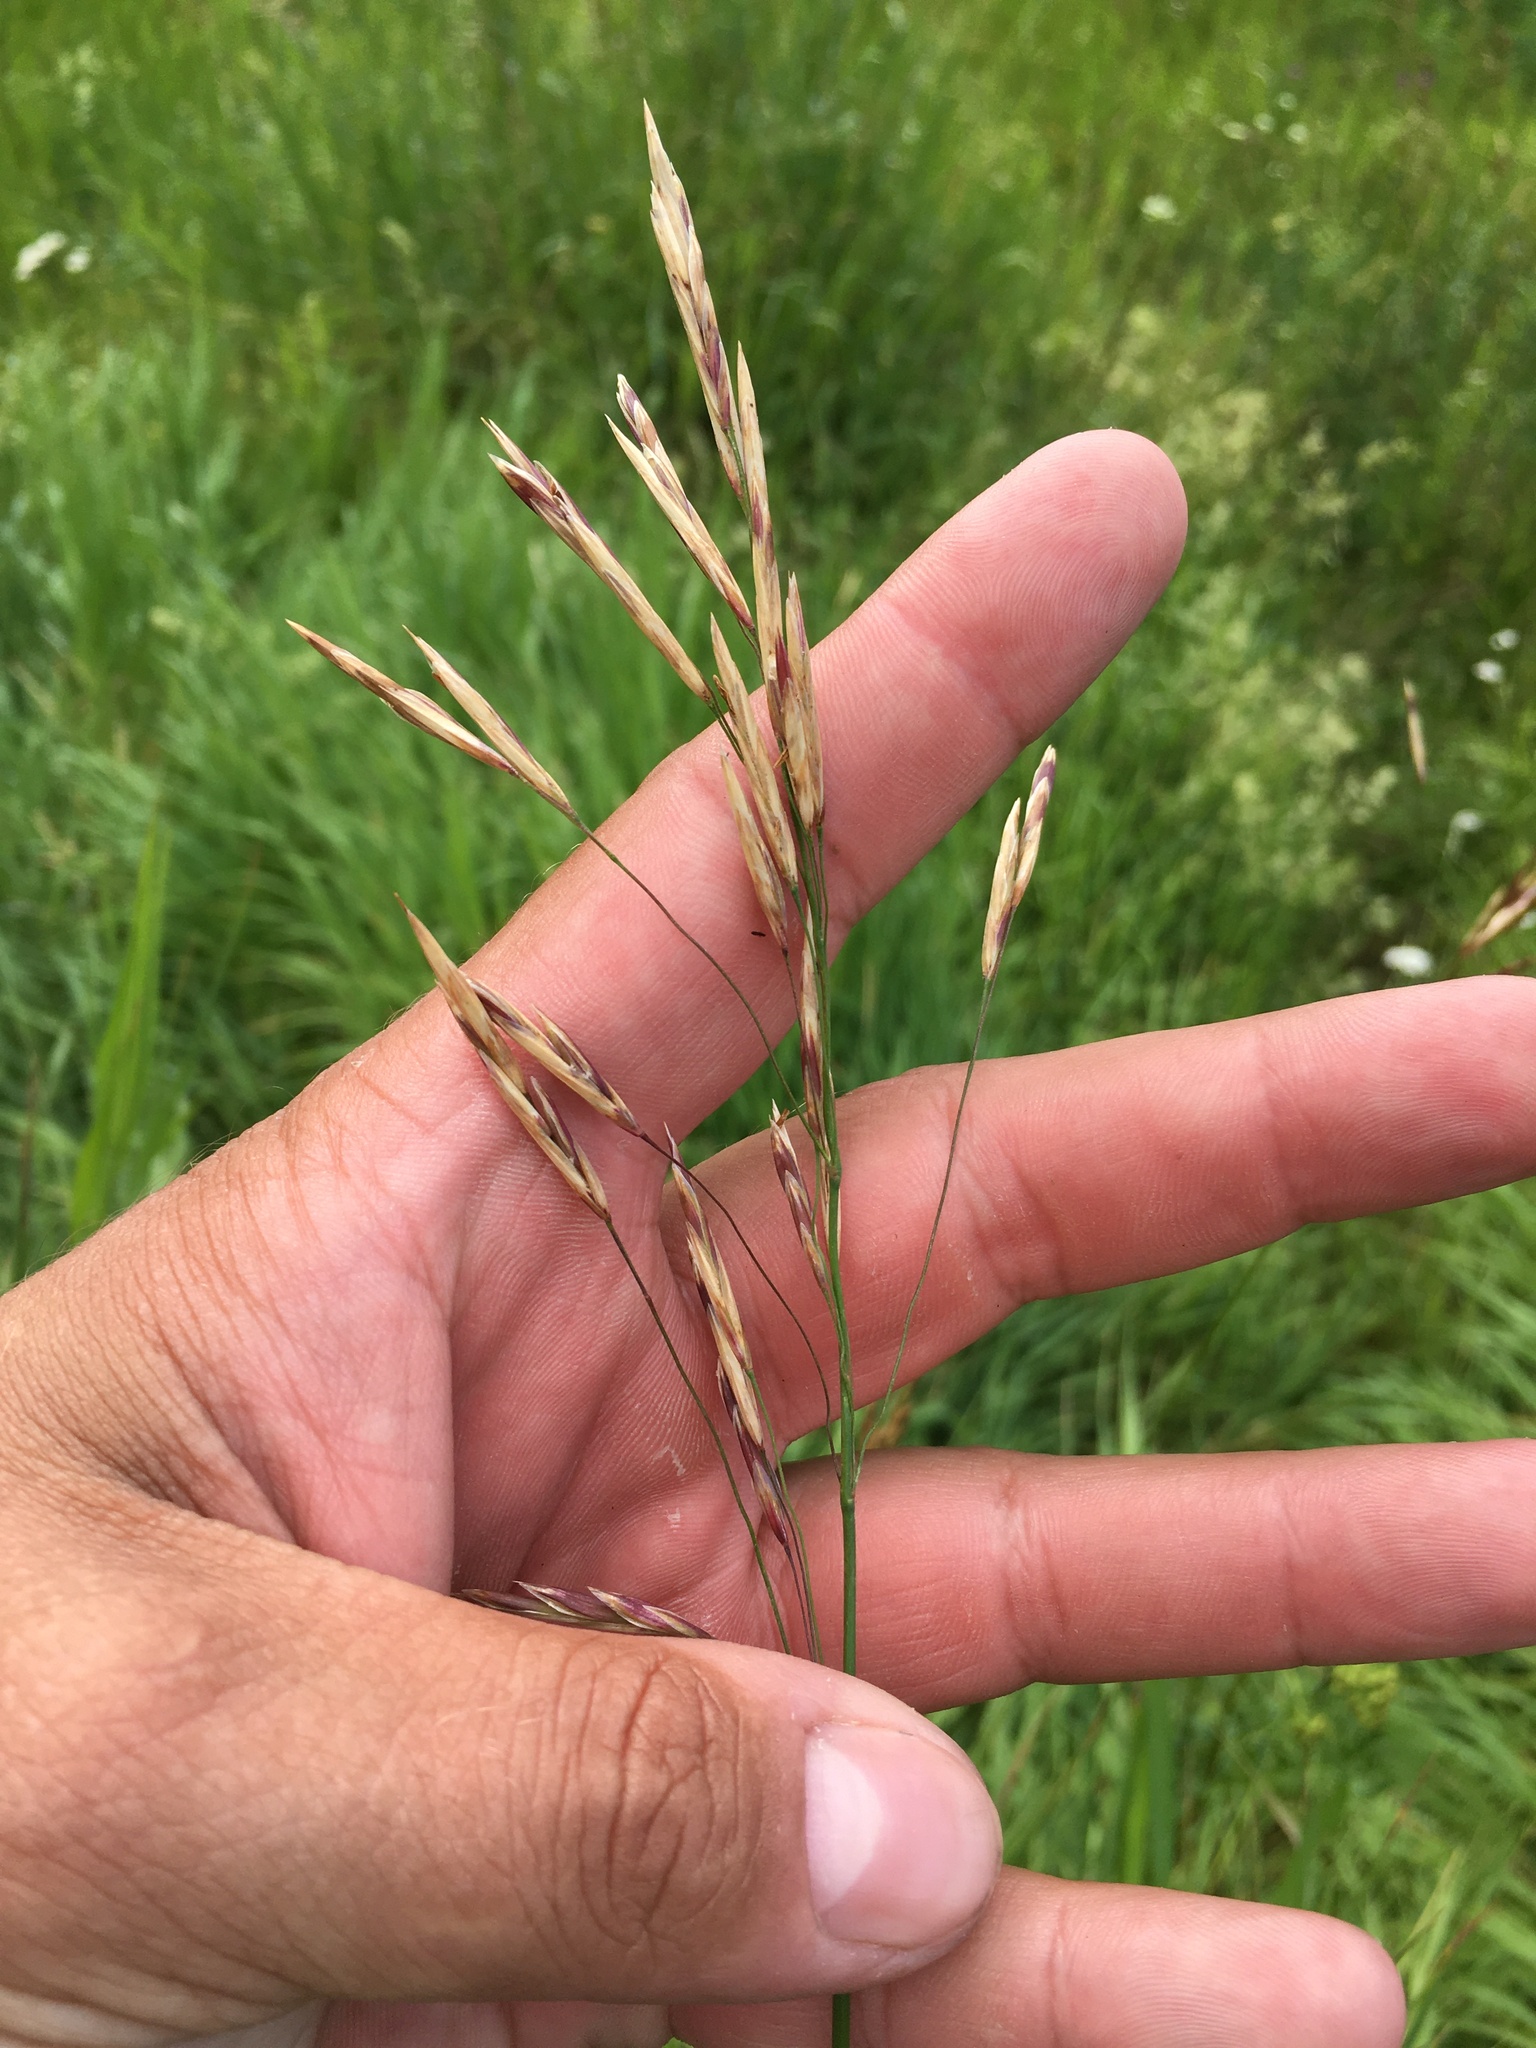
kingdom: Plantae
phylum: Tracheophyta
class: Liliopsida
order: Poales
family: Poaceae
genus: Bromus
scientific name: Bromus inermis
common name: Smooth brome
